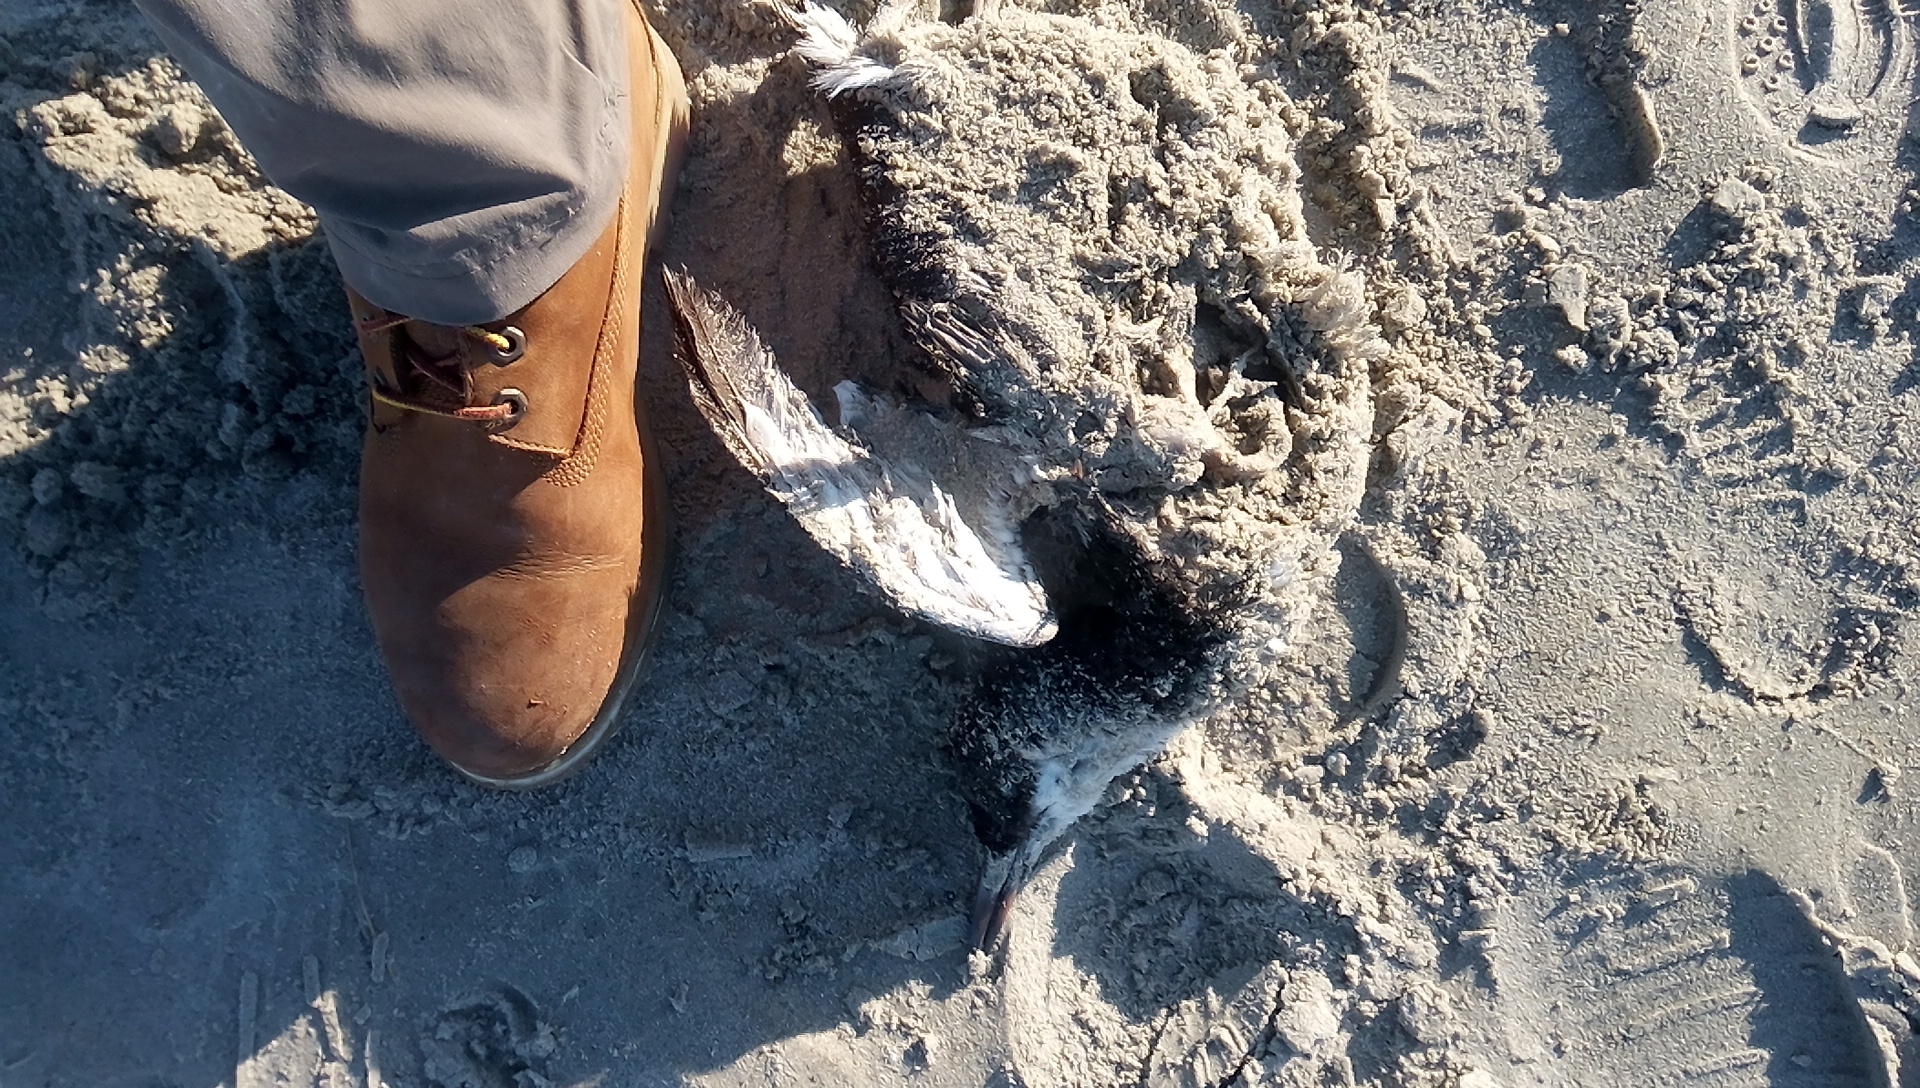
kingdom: Animalia
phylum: Chordata
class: Aves
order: Charadriiformes
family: Alcidae
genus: Uria
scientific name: Uria aalge
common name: Common murre
